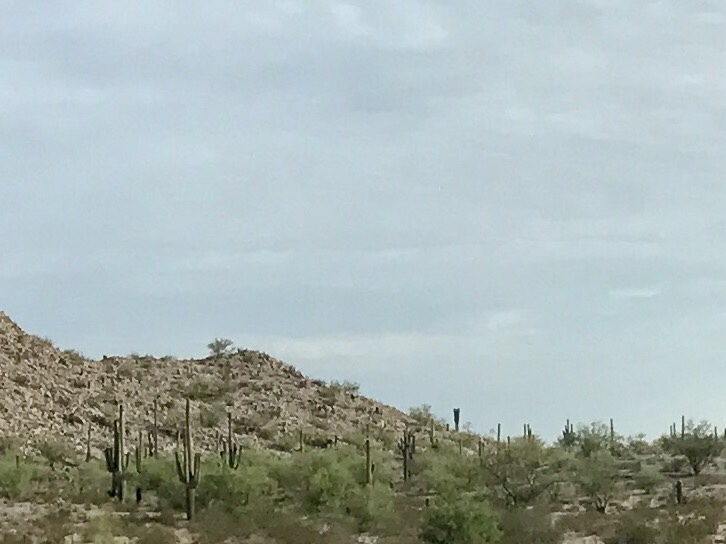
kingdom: Plantae
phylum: Tracheophyta
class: Magnoliopsida
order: Caryophyllales
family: Cactaceae
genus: Carnegiea
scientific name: Carnegiea gigantea
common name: Saguaro
